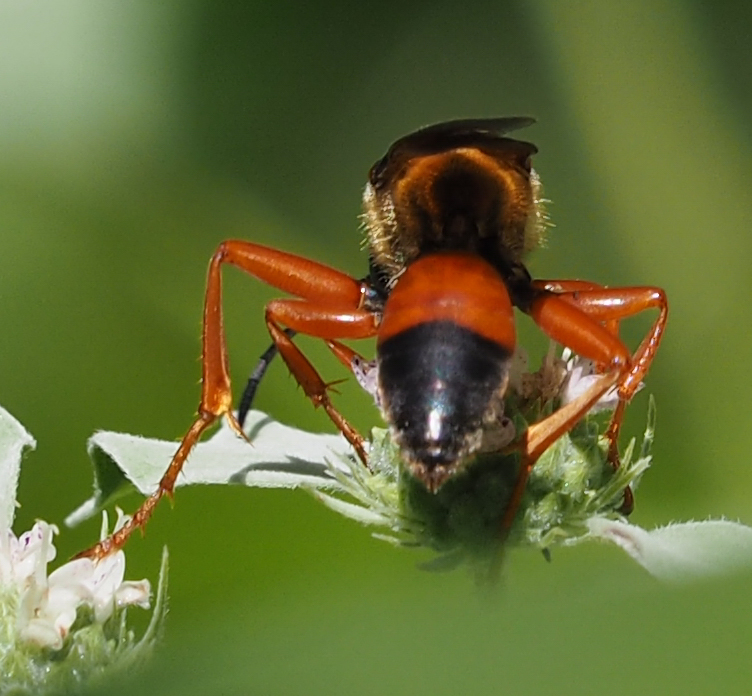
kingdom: Animalia
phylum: Arthropoda
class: Insecta
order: Hymenoptera
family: Sphecidae
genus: Sphex
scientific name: Sphex ichneumoneus
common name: Great golden digger wasp
